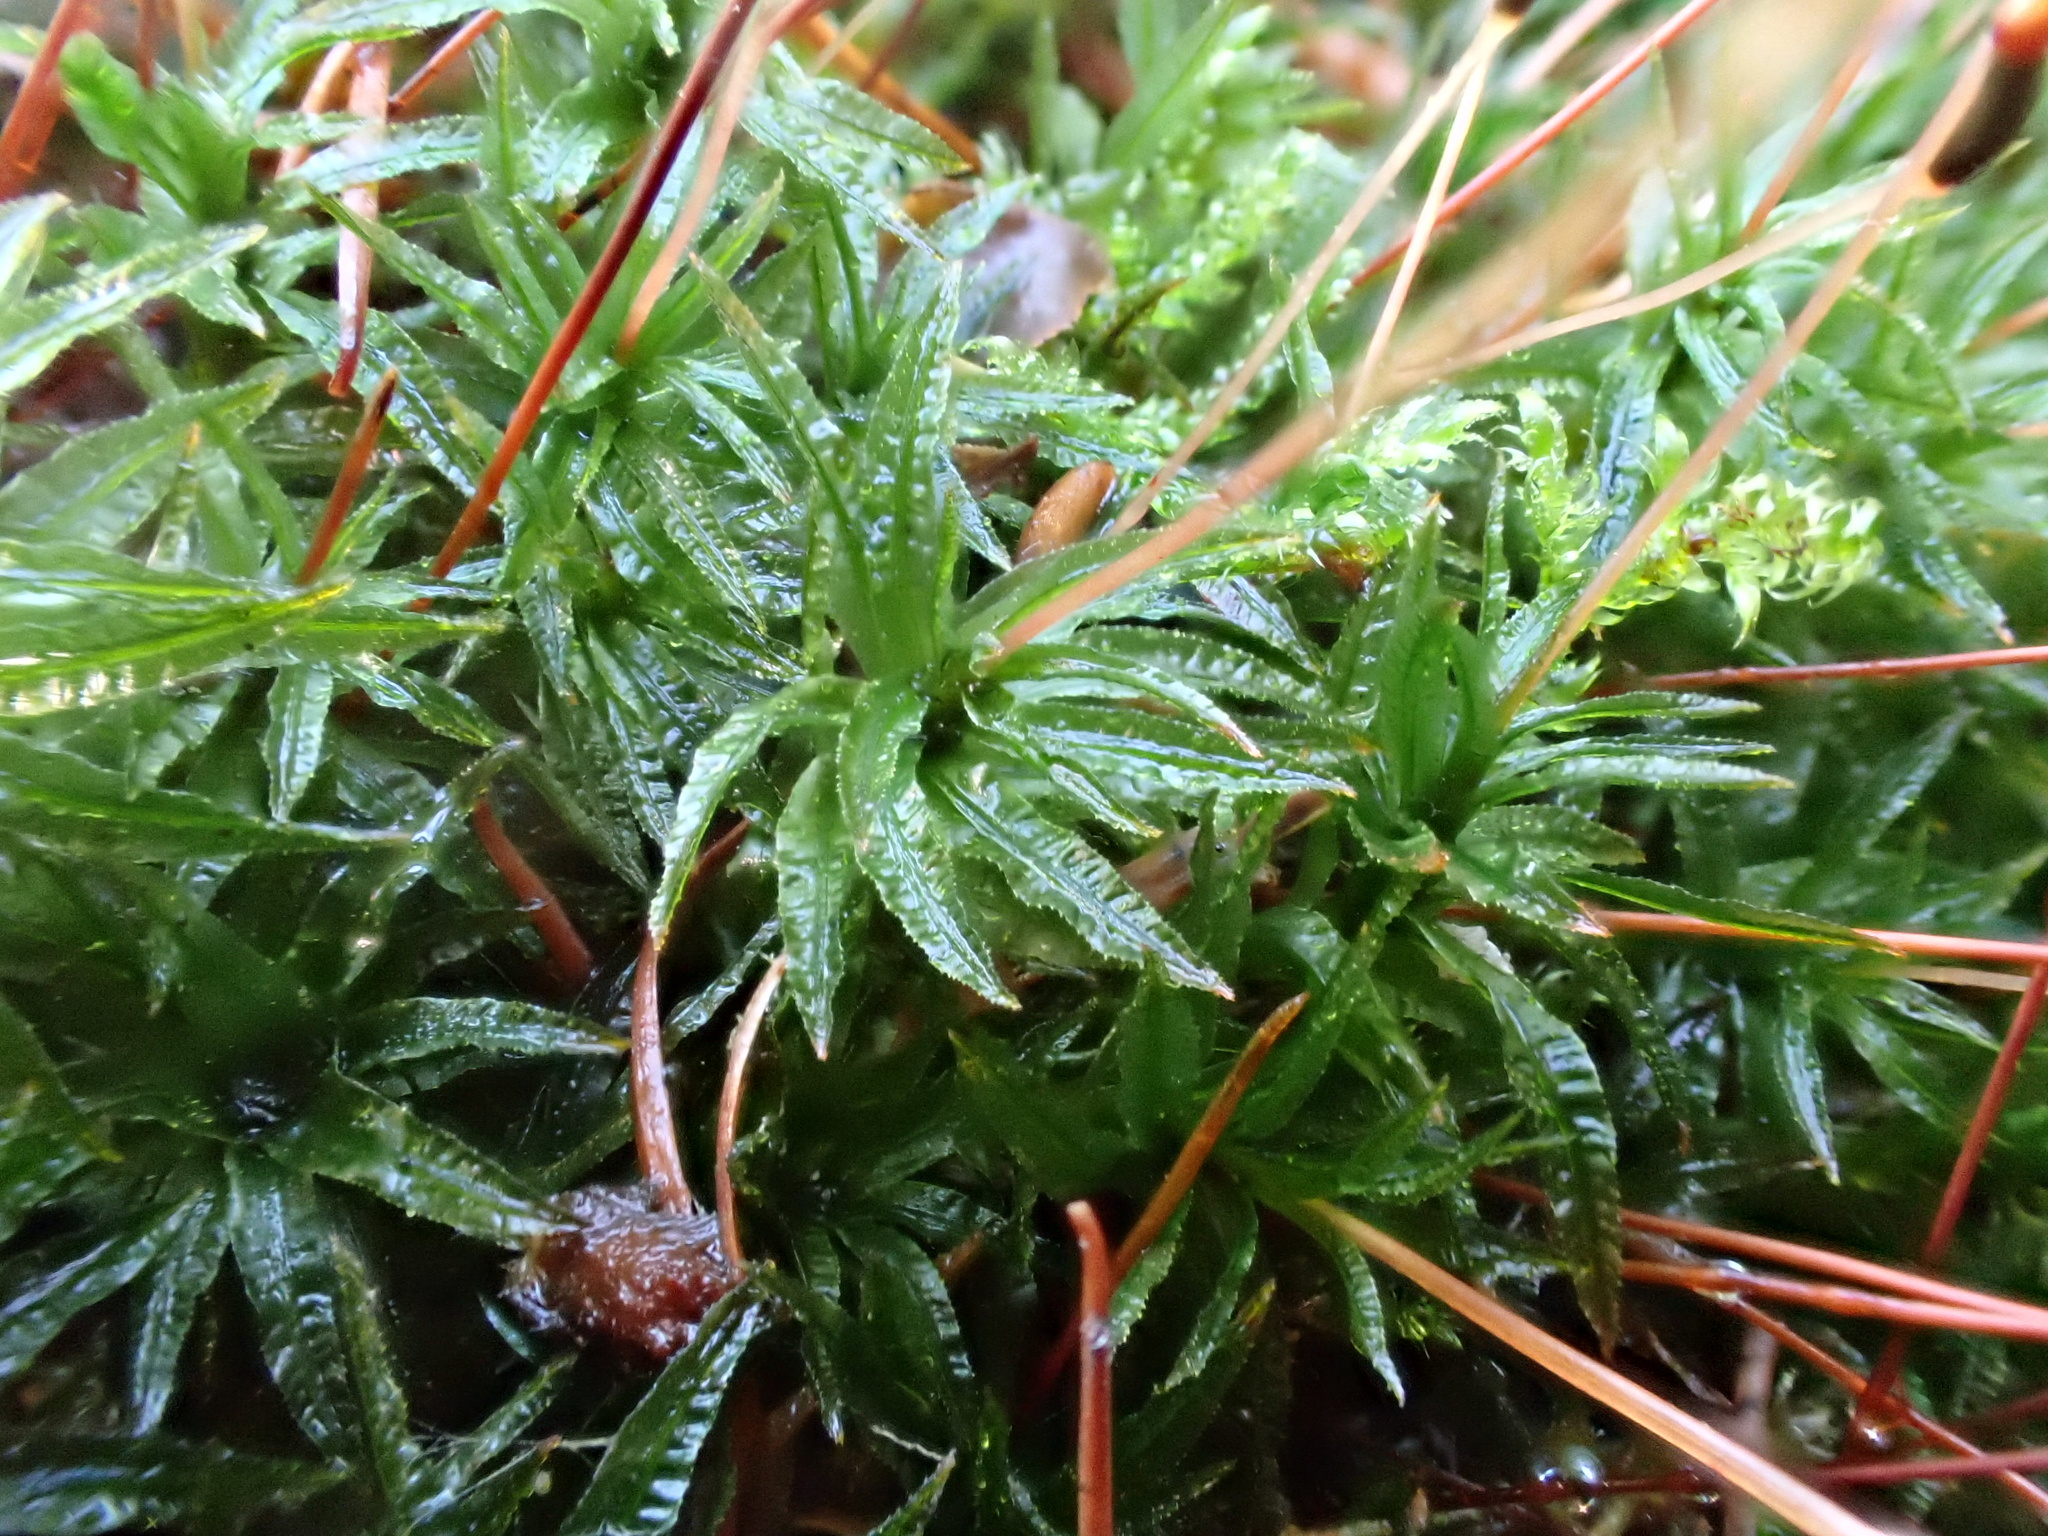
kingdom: Plantae
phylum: Bryophyta
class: Polytrichopsida
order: Polytrichales
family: Polytrichaceae
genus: Atrichum
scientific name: Atrichum undulatum
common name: Common smoothcap
